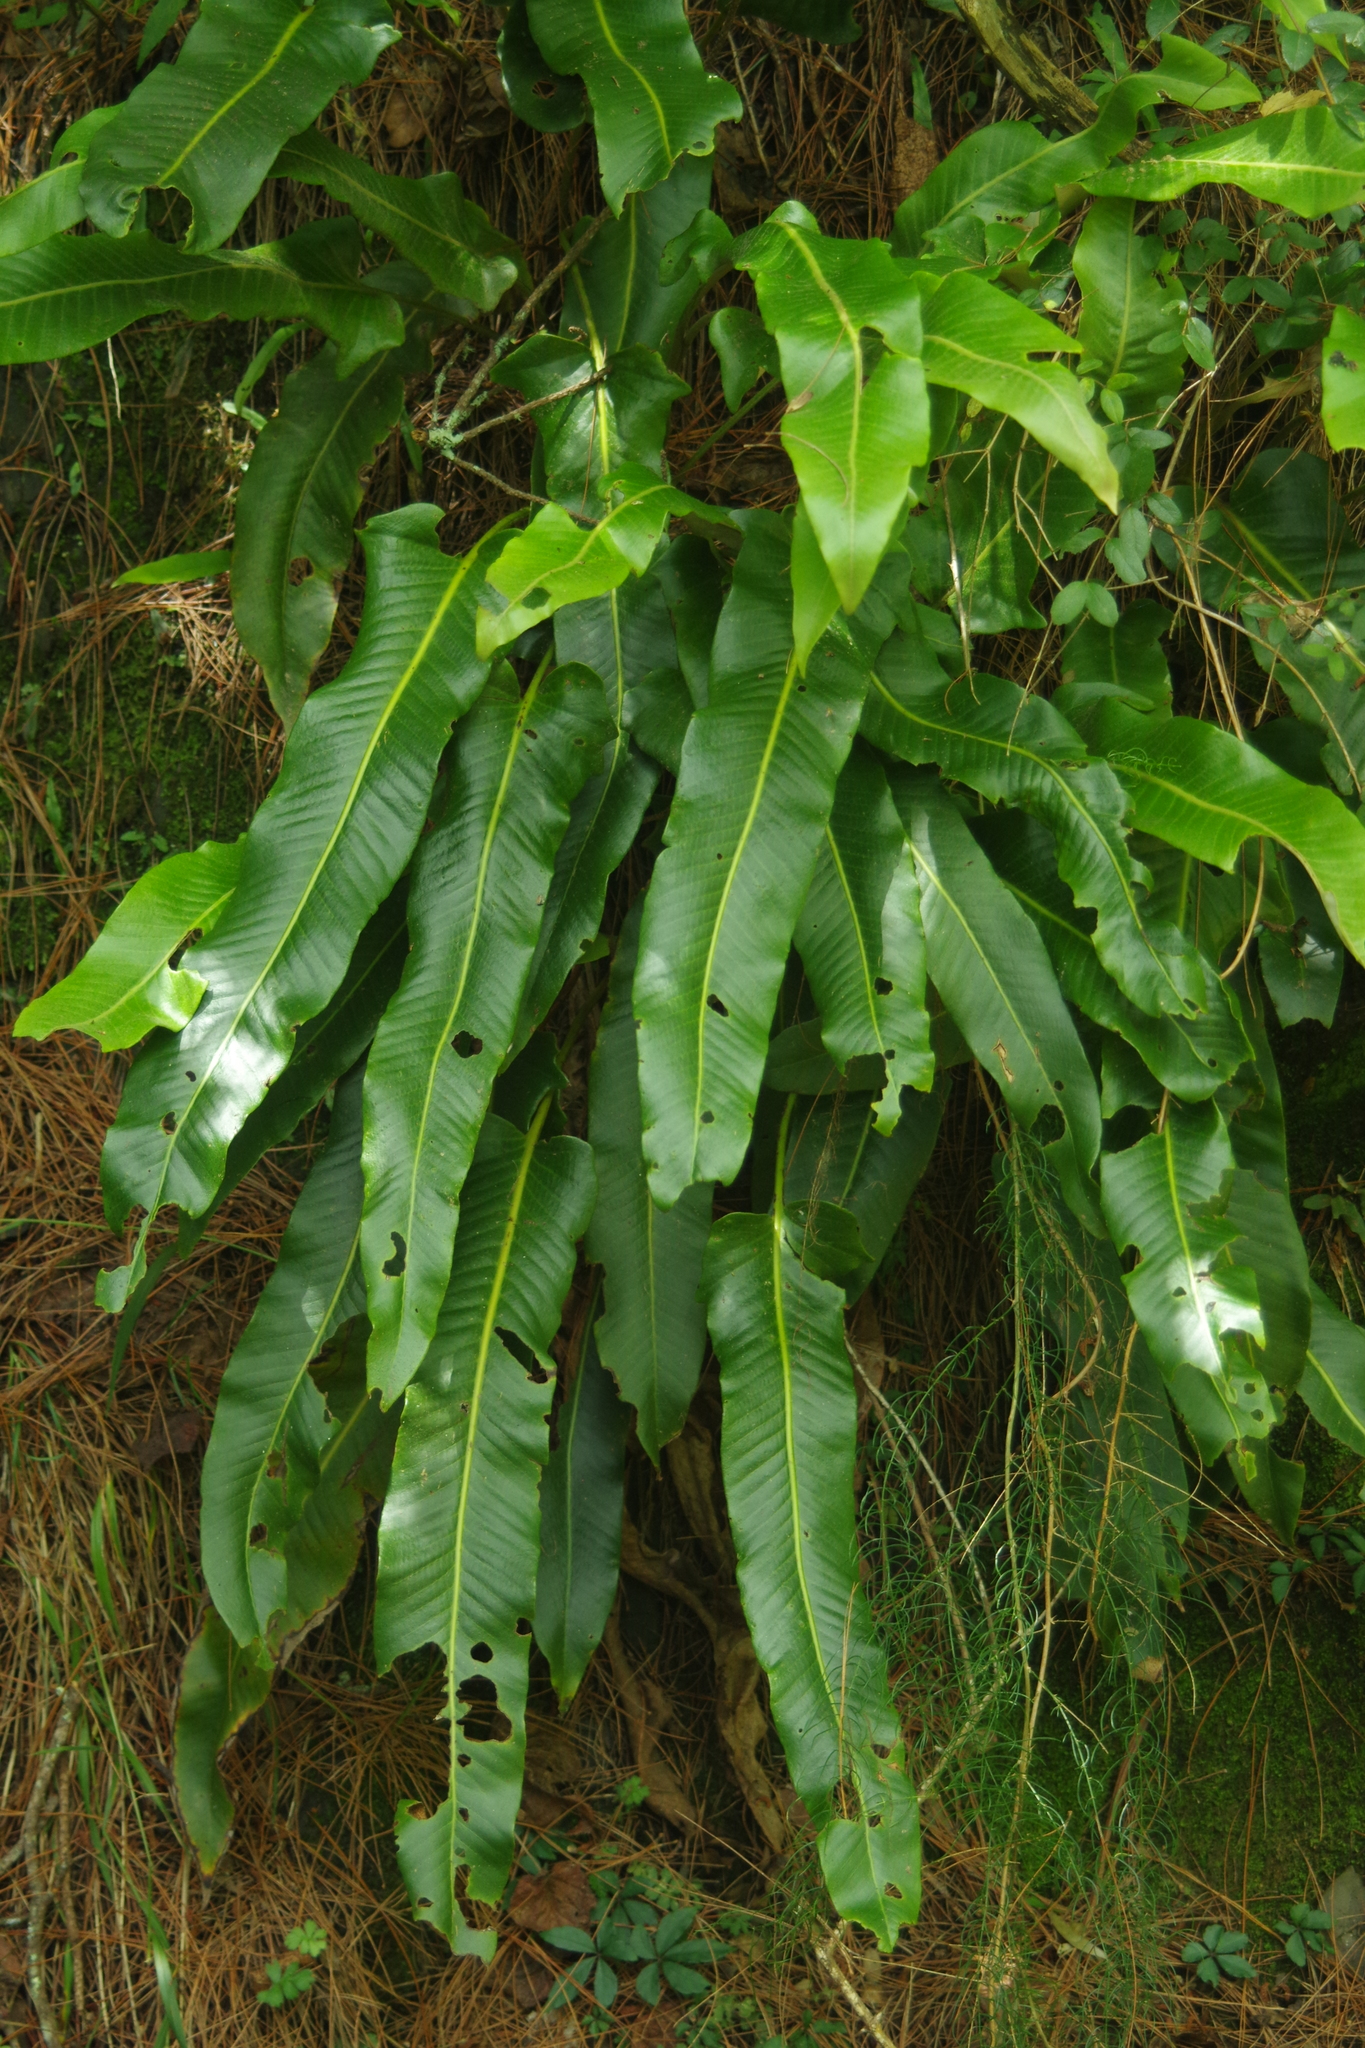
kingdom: Plantae
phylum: Tracheophyta
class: Polypodiopsida
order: Polypodiales
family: Polypodiaceae
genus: Pyrrosia
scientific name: Pyrrosia sheareri
